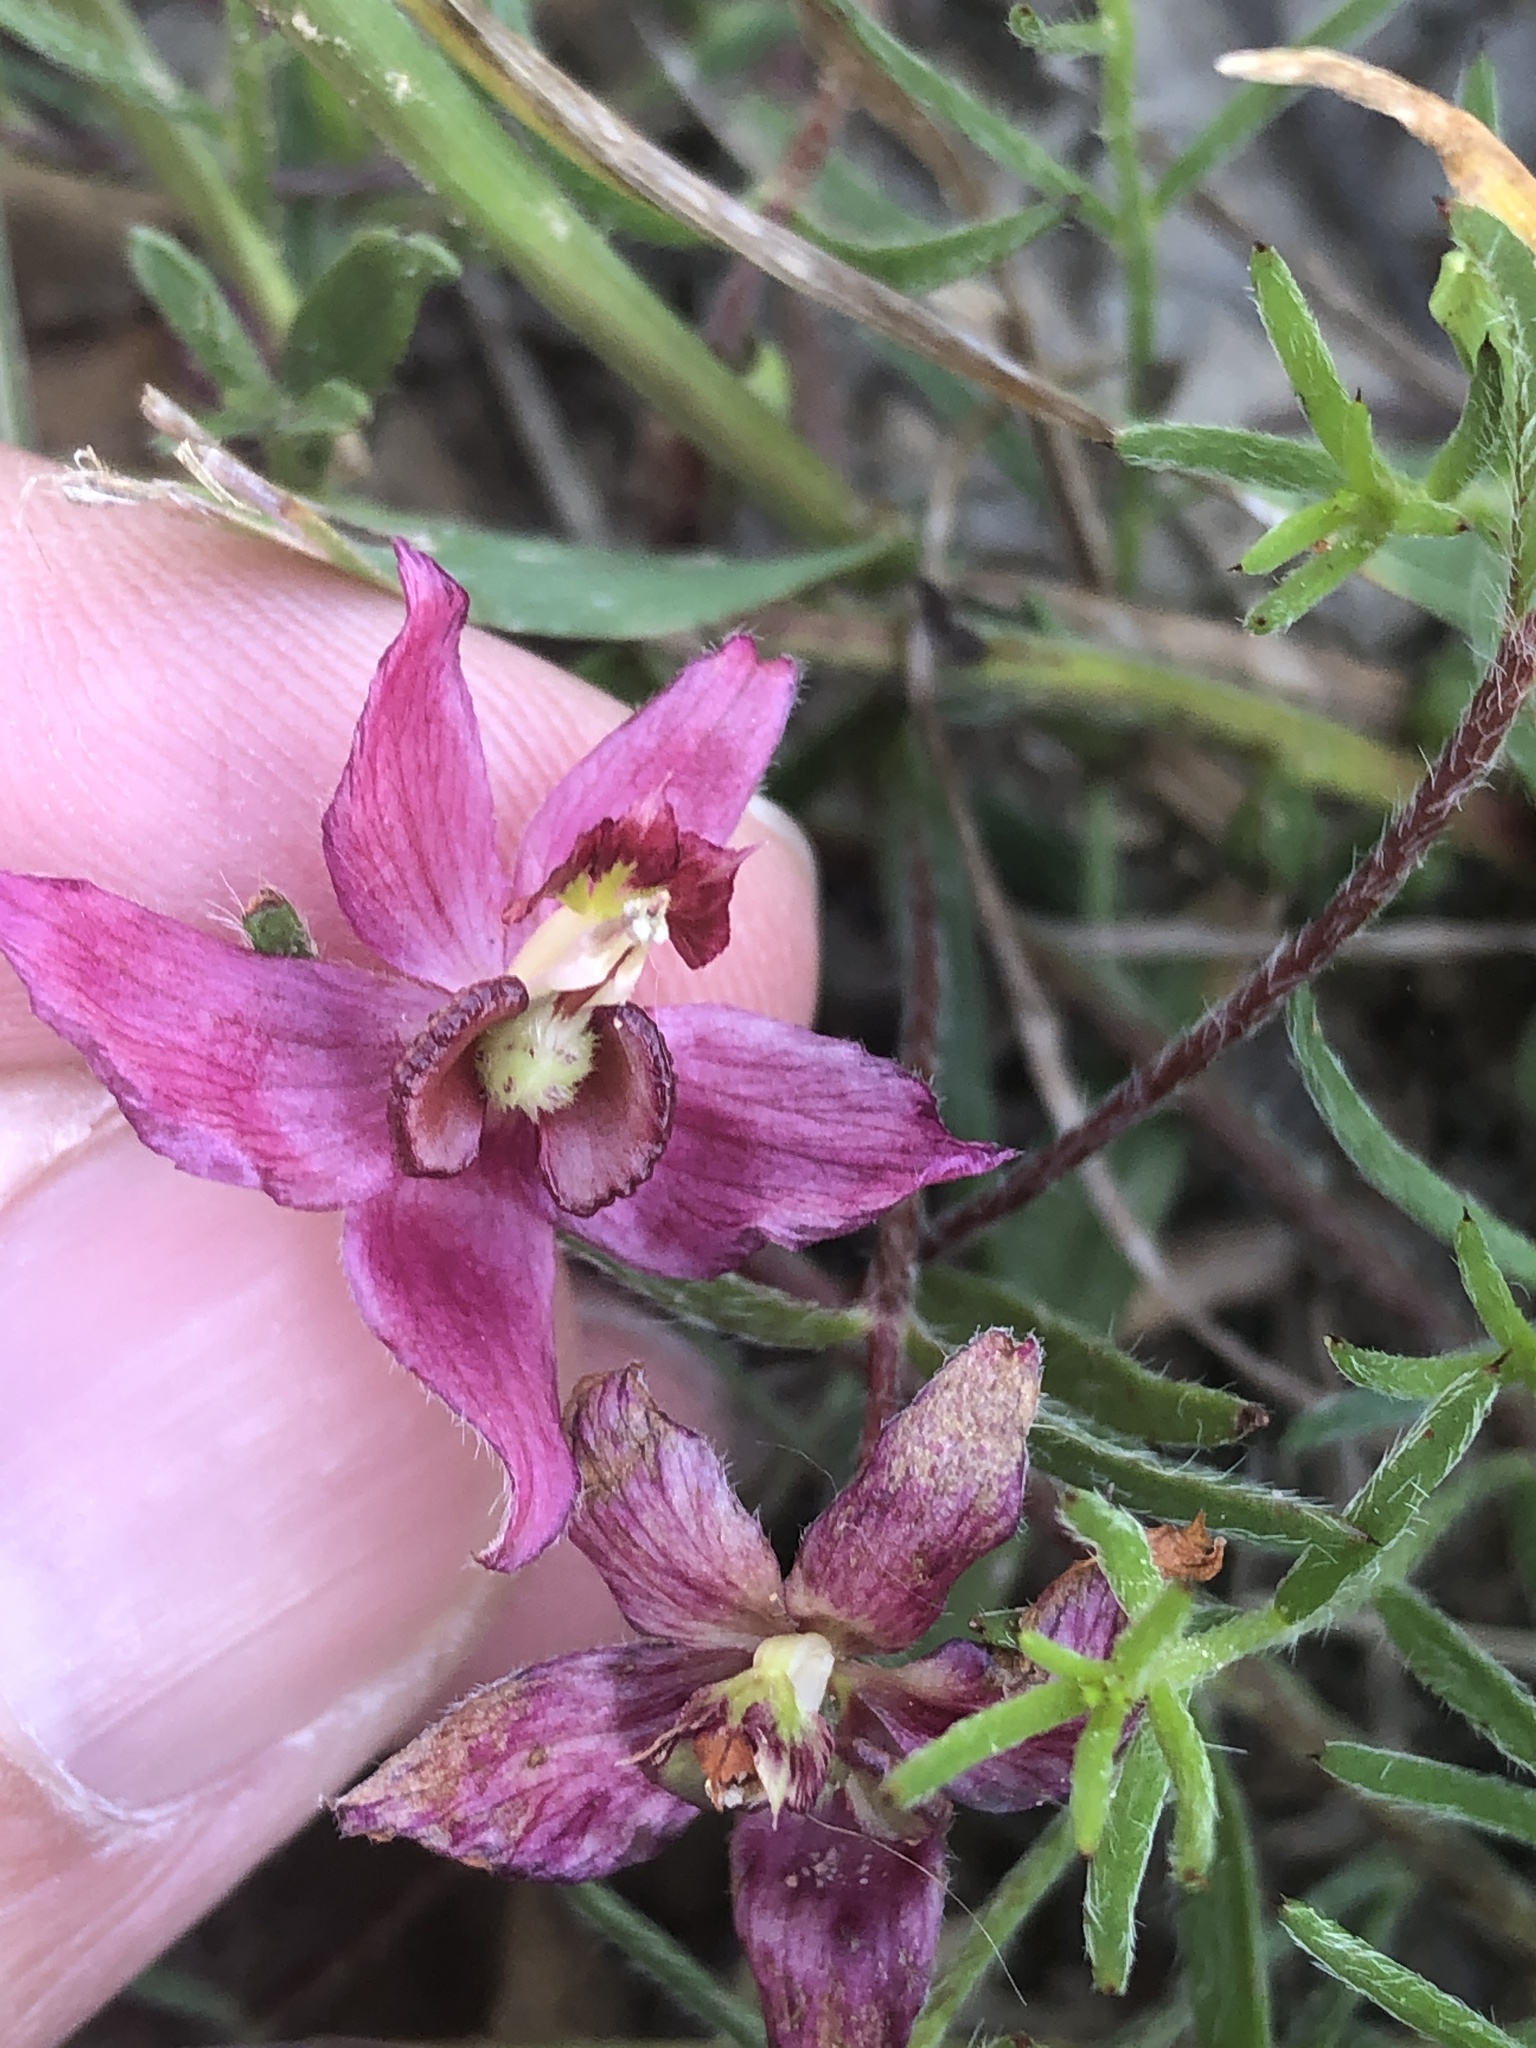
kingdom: Plantae
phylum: Tracheophyta
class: Magnoliopsida
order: Zygophyllales
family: Krameriaceae
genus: Krameria
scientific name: Krameria lanceolata
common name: Ratany
